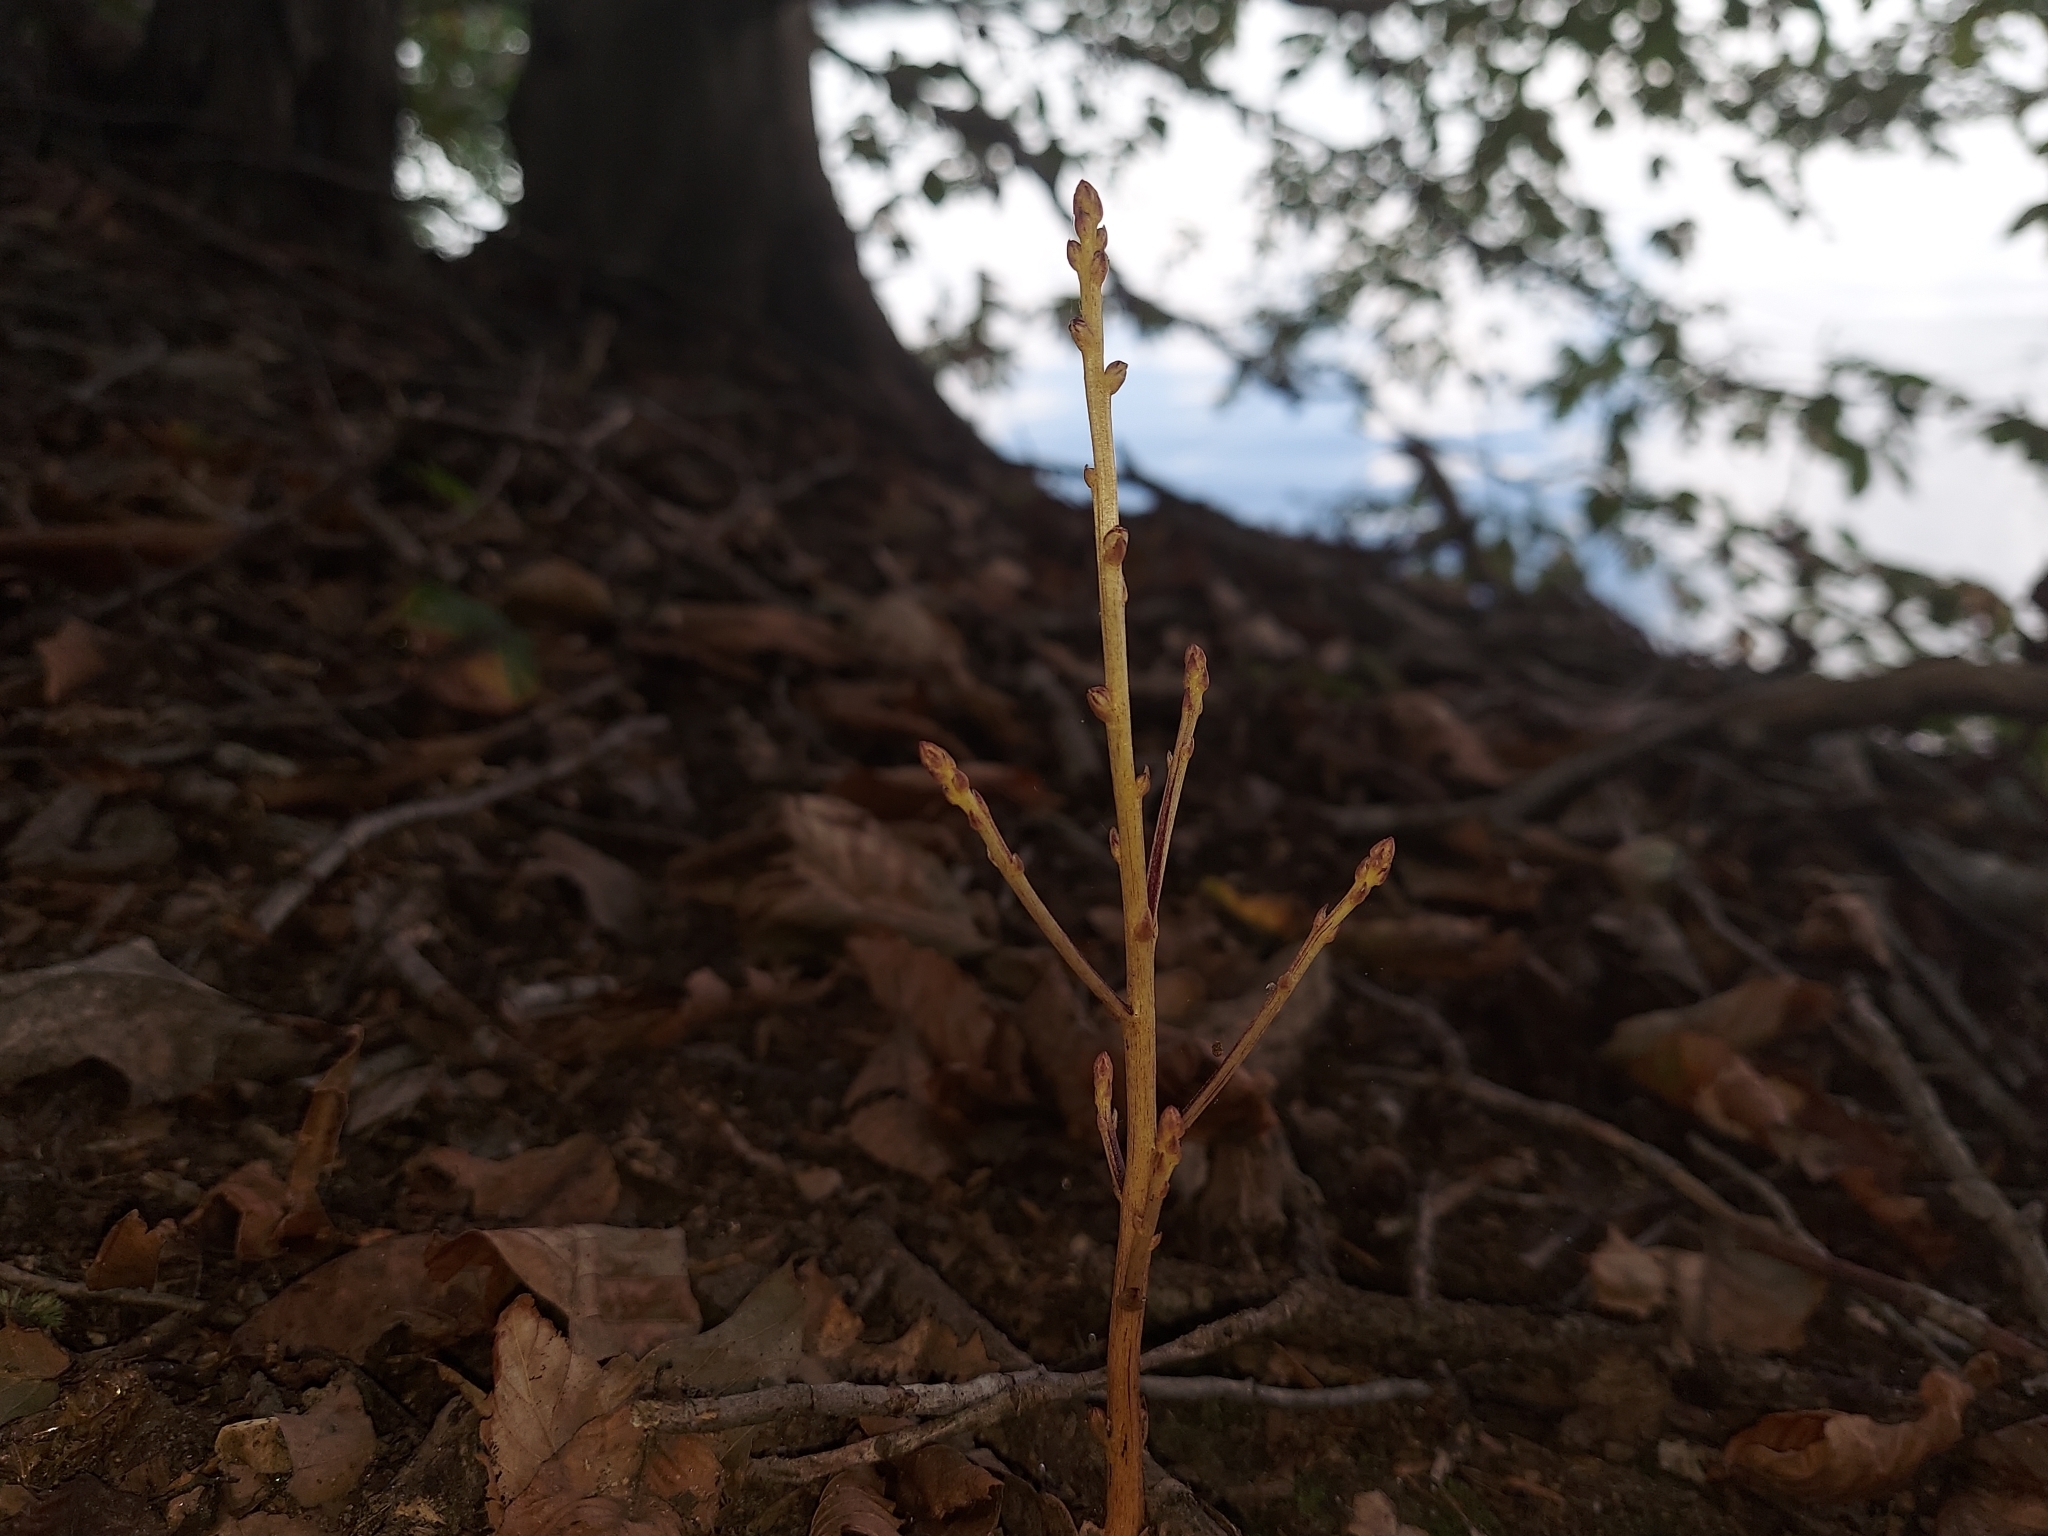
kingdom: Plantae
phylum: Tracheophyta
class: Magnoliopsida
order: Lamiales
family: Orobanchaceae
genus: Epifagus
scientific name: Epifagus virginiana
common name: Beechdrops
